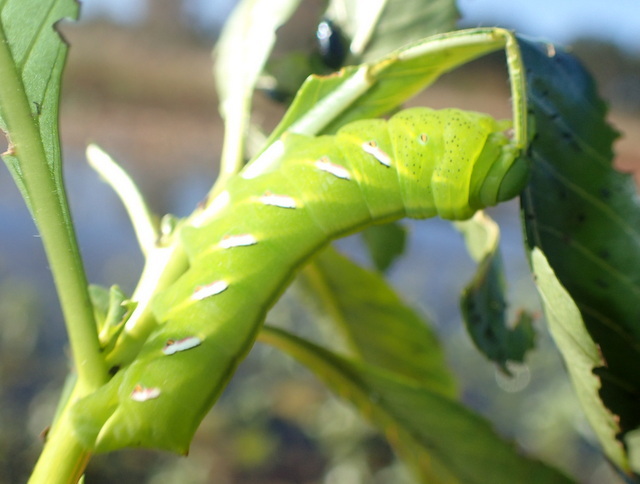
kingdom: Animalia
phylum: Arthropoda
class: Insecta
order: Lepidoptera
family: Sphingidae
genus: Eumorpha
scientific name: Eumorpha fasciatus
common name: Banded sphinx
